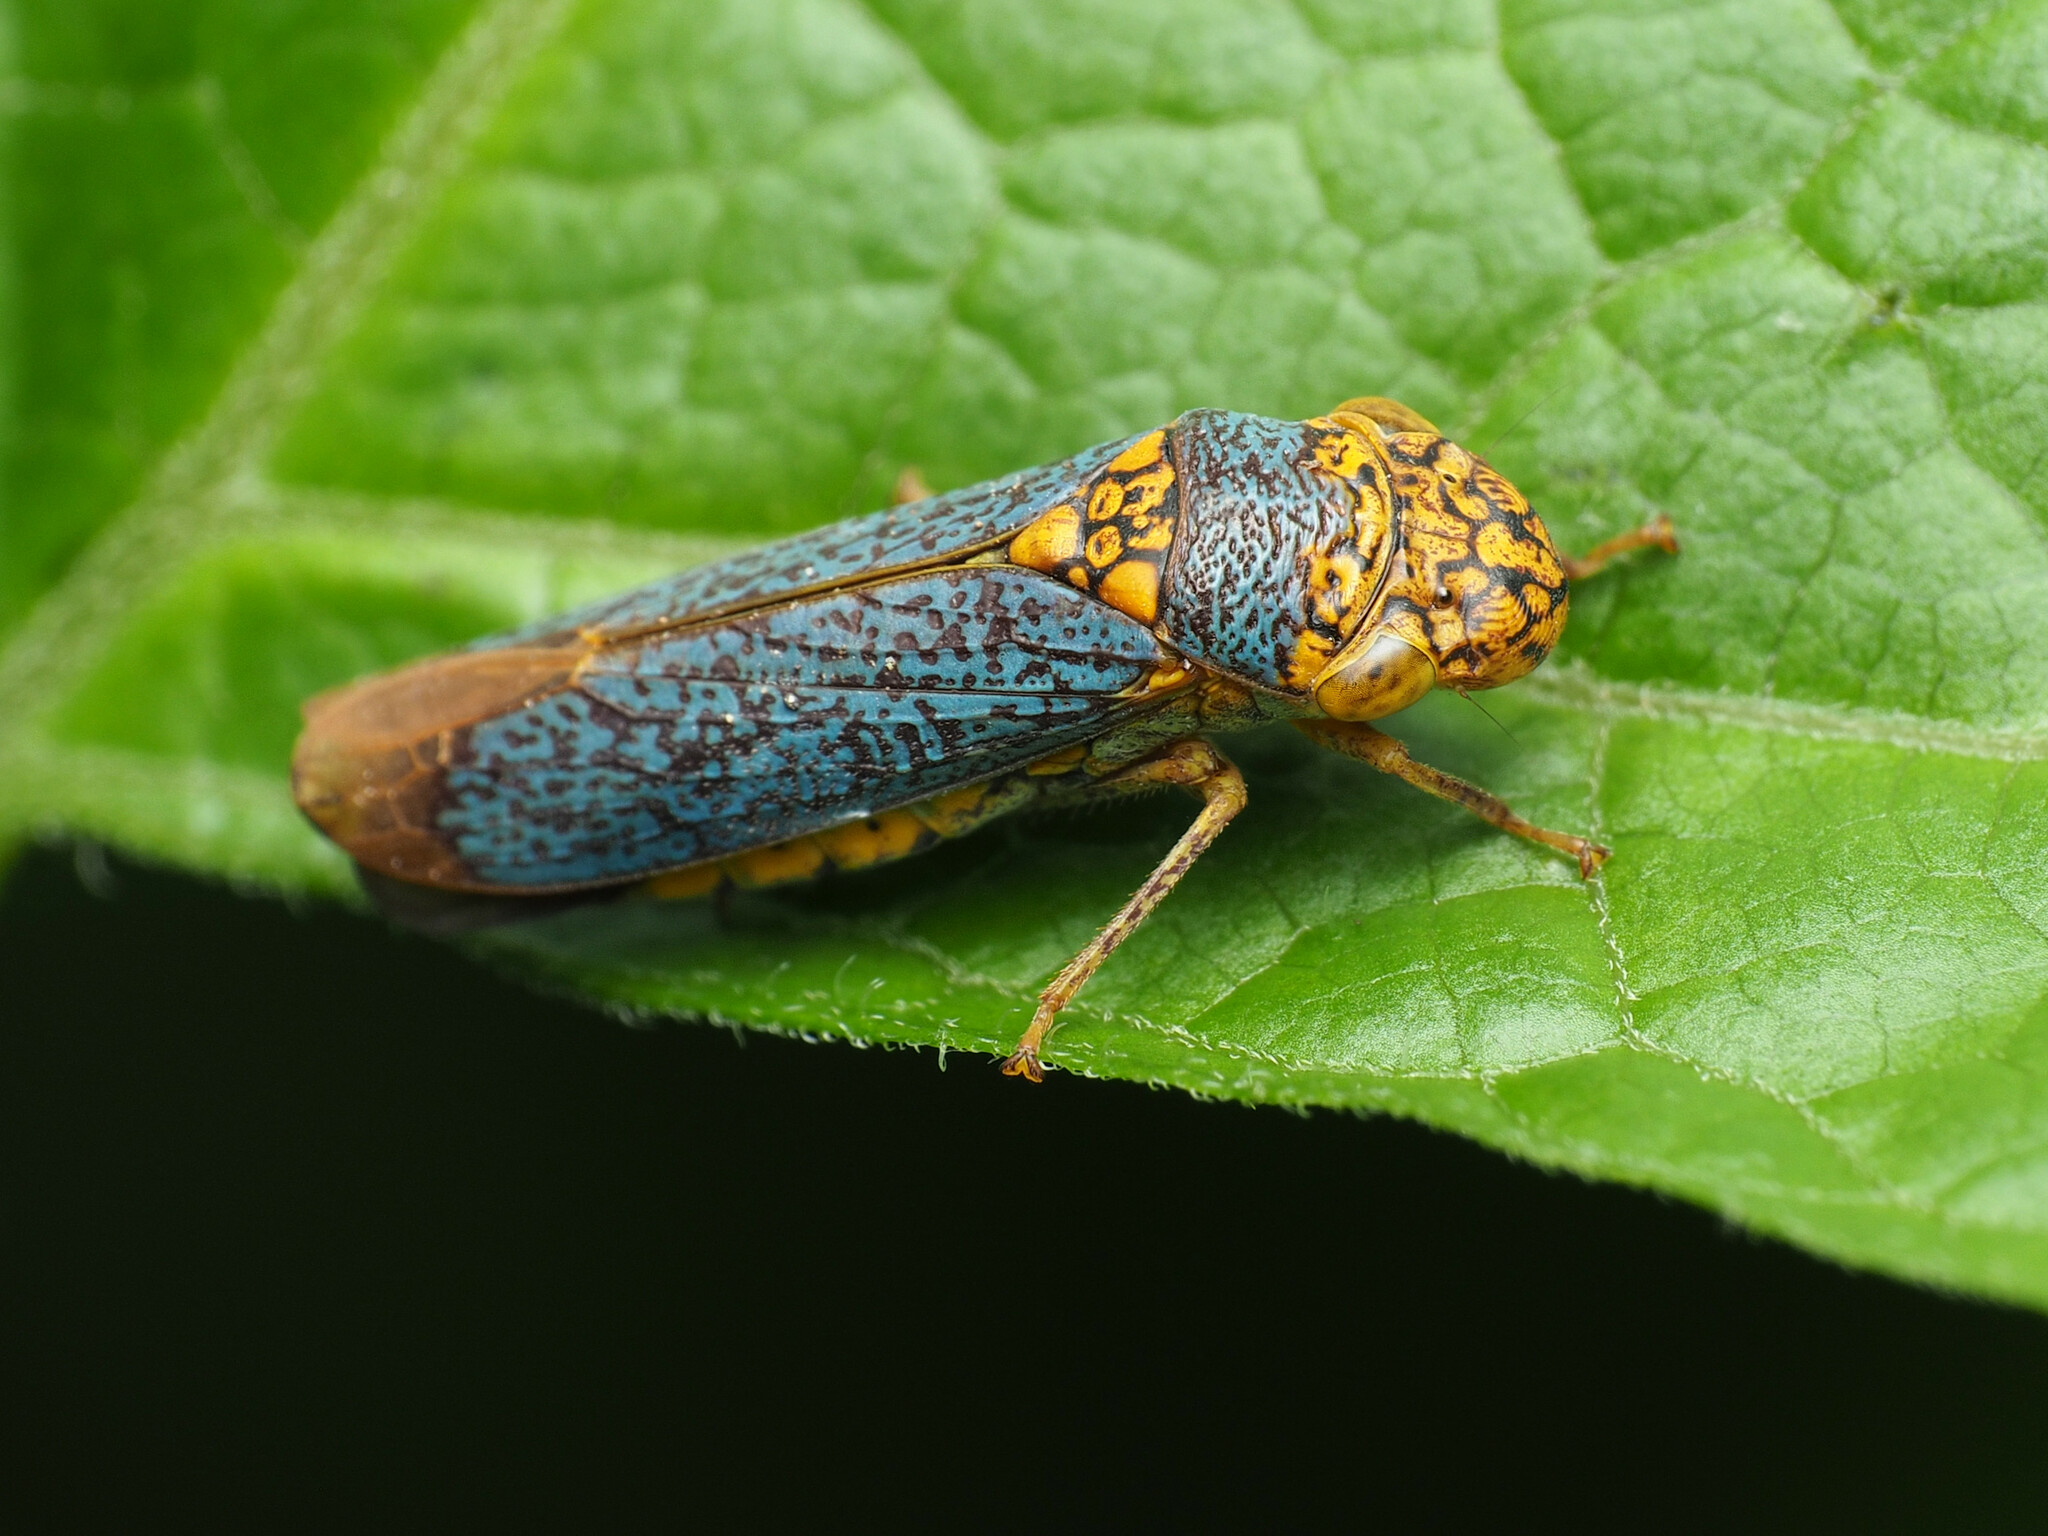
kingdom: Animalia
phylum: Arthropoda
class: Insecta
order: Hemiptera
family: Cicadellidae
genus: Oncometopia
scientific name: Oncometopia orbona
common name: Broad-headed sharpshooter
